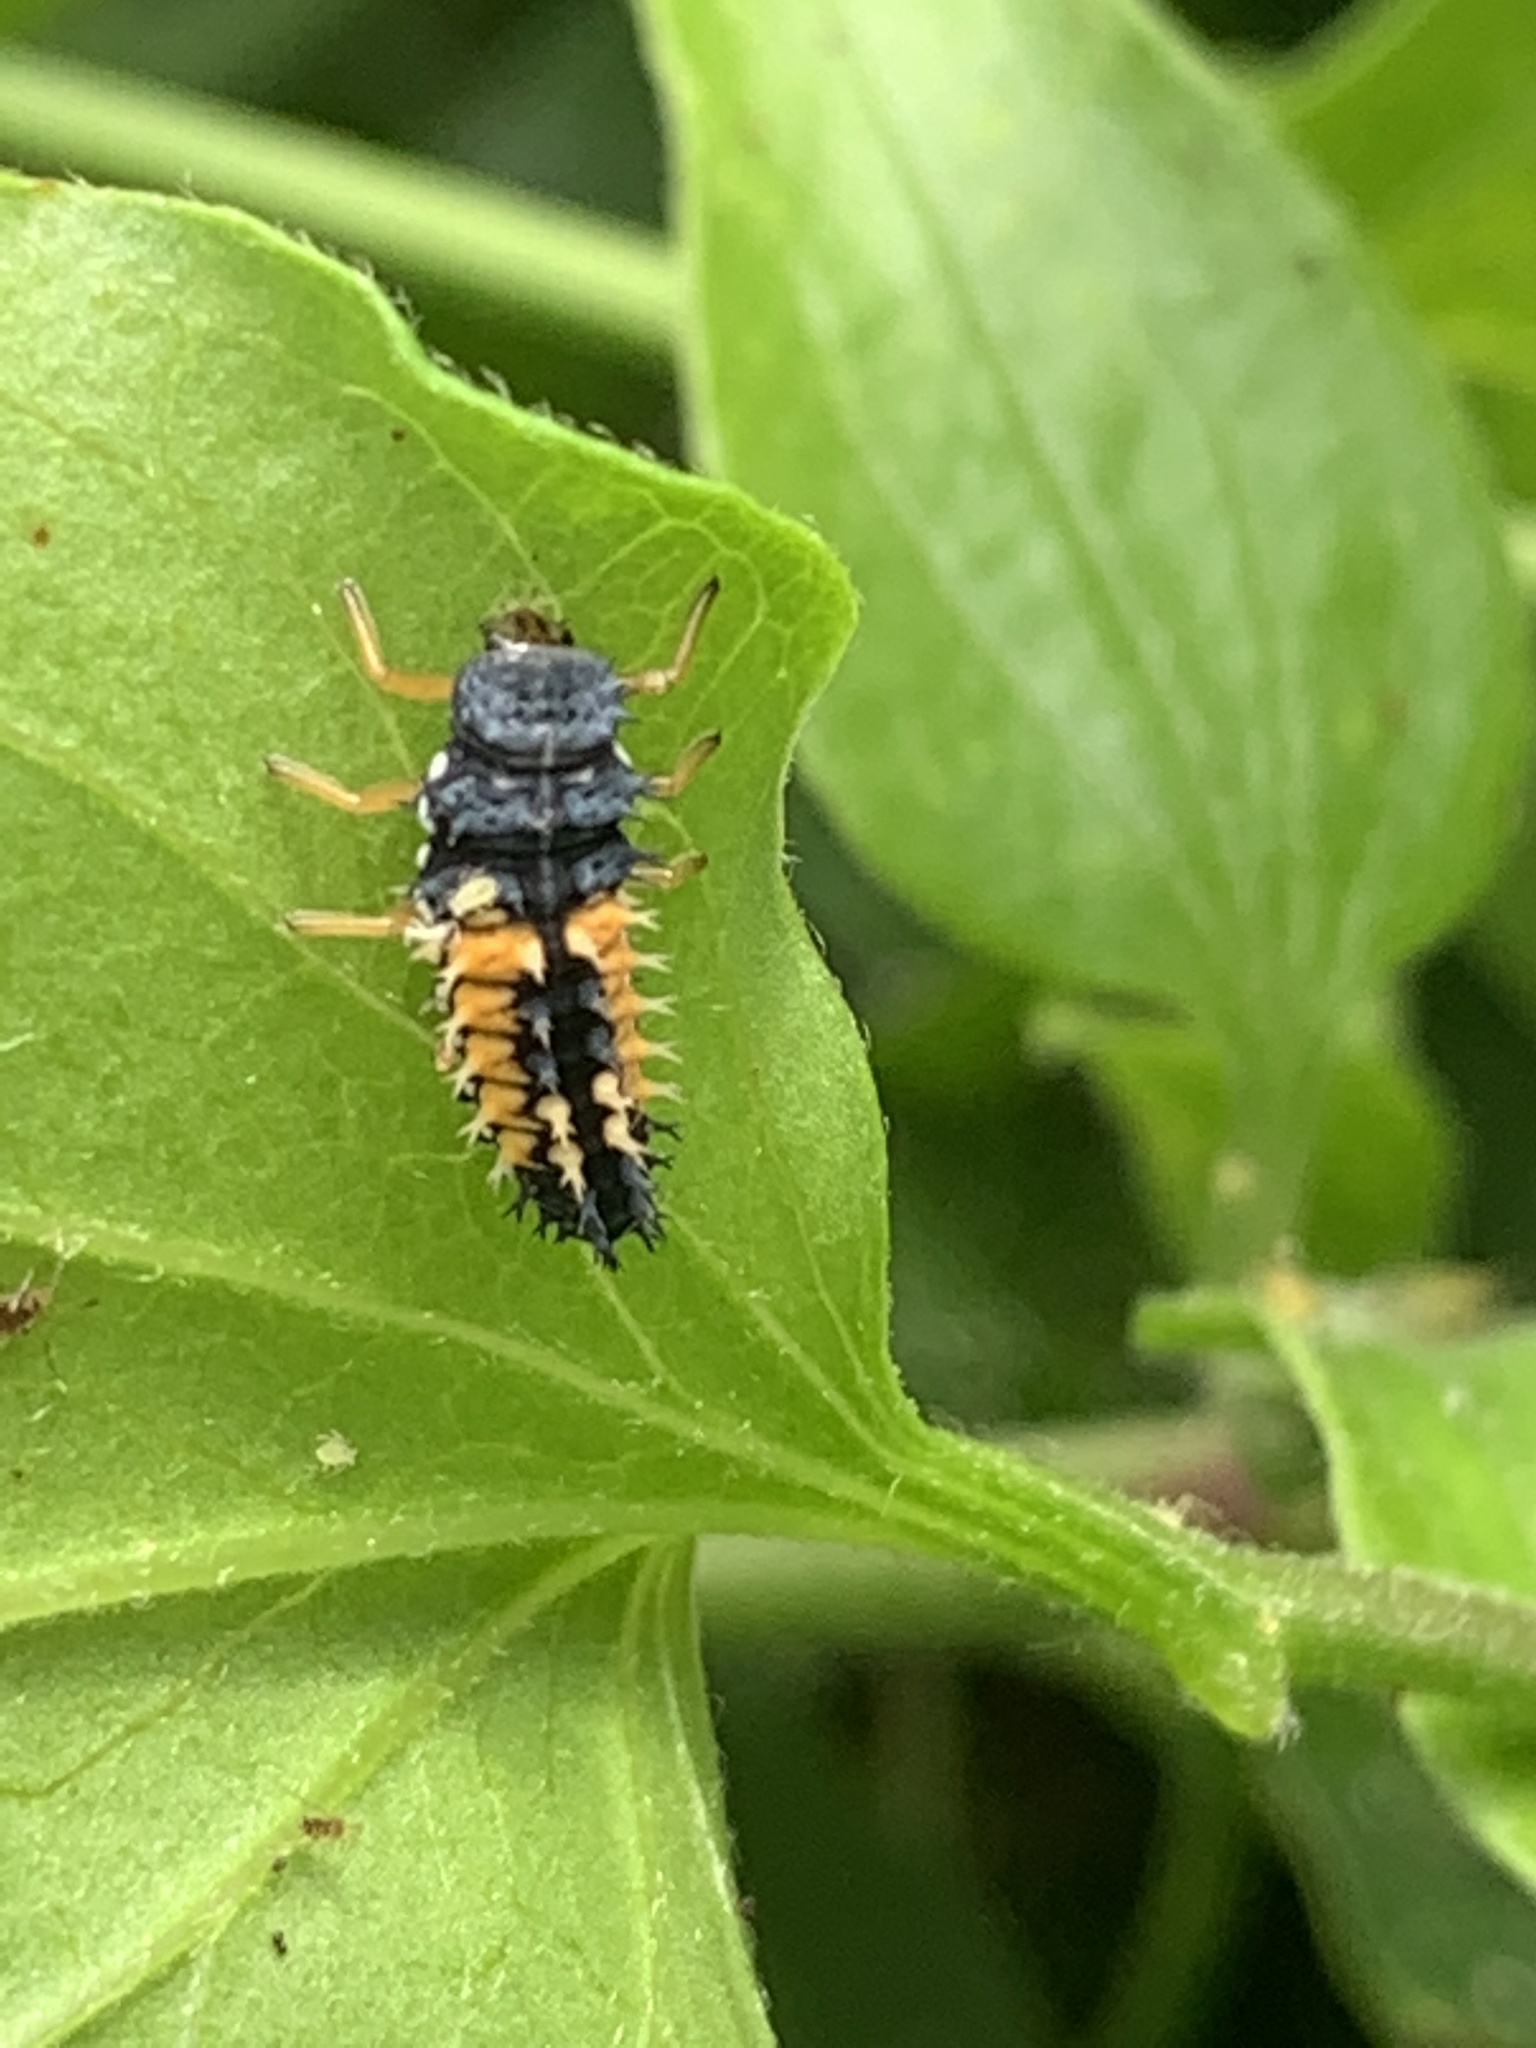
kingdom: Animalia
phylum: Arthropoda
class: Insecta
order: Coleoptera
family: Coccinellidae
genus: Harmonia
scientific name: Harmonia axyridis
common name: Harlequin ladybird
